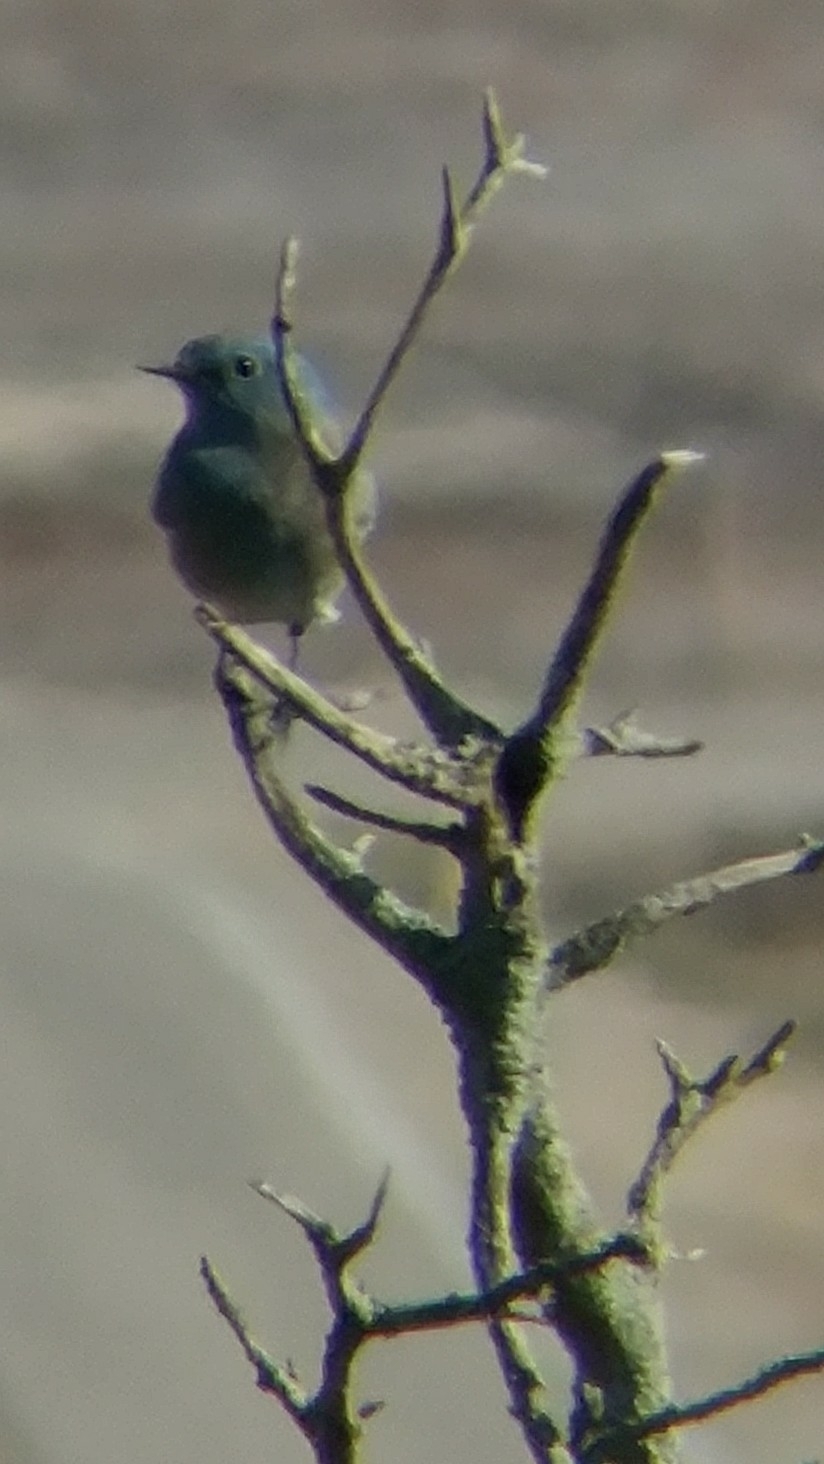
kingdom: Animalia
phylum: Chordata
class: Aves
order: Passeriformes
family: Turdidae
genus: Sialia
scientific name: Sialia currucoides
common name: Mountain bluebird
